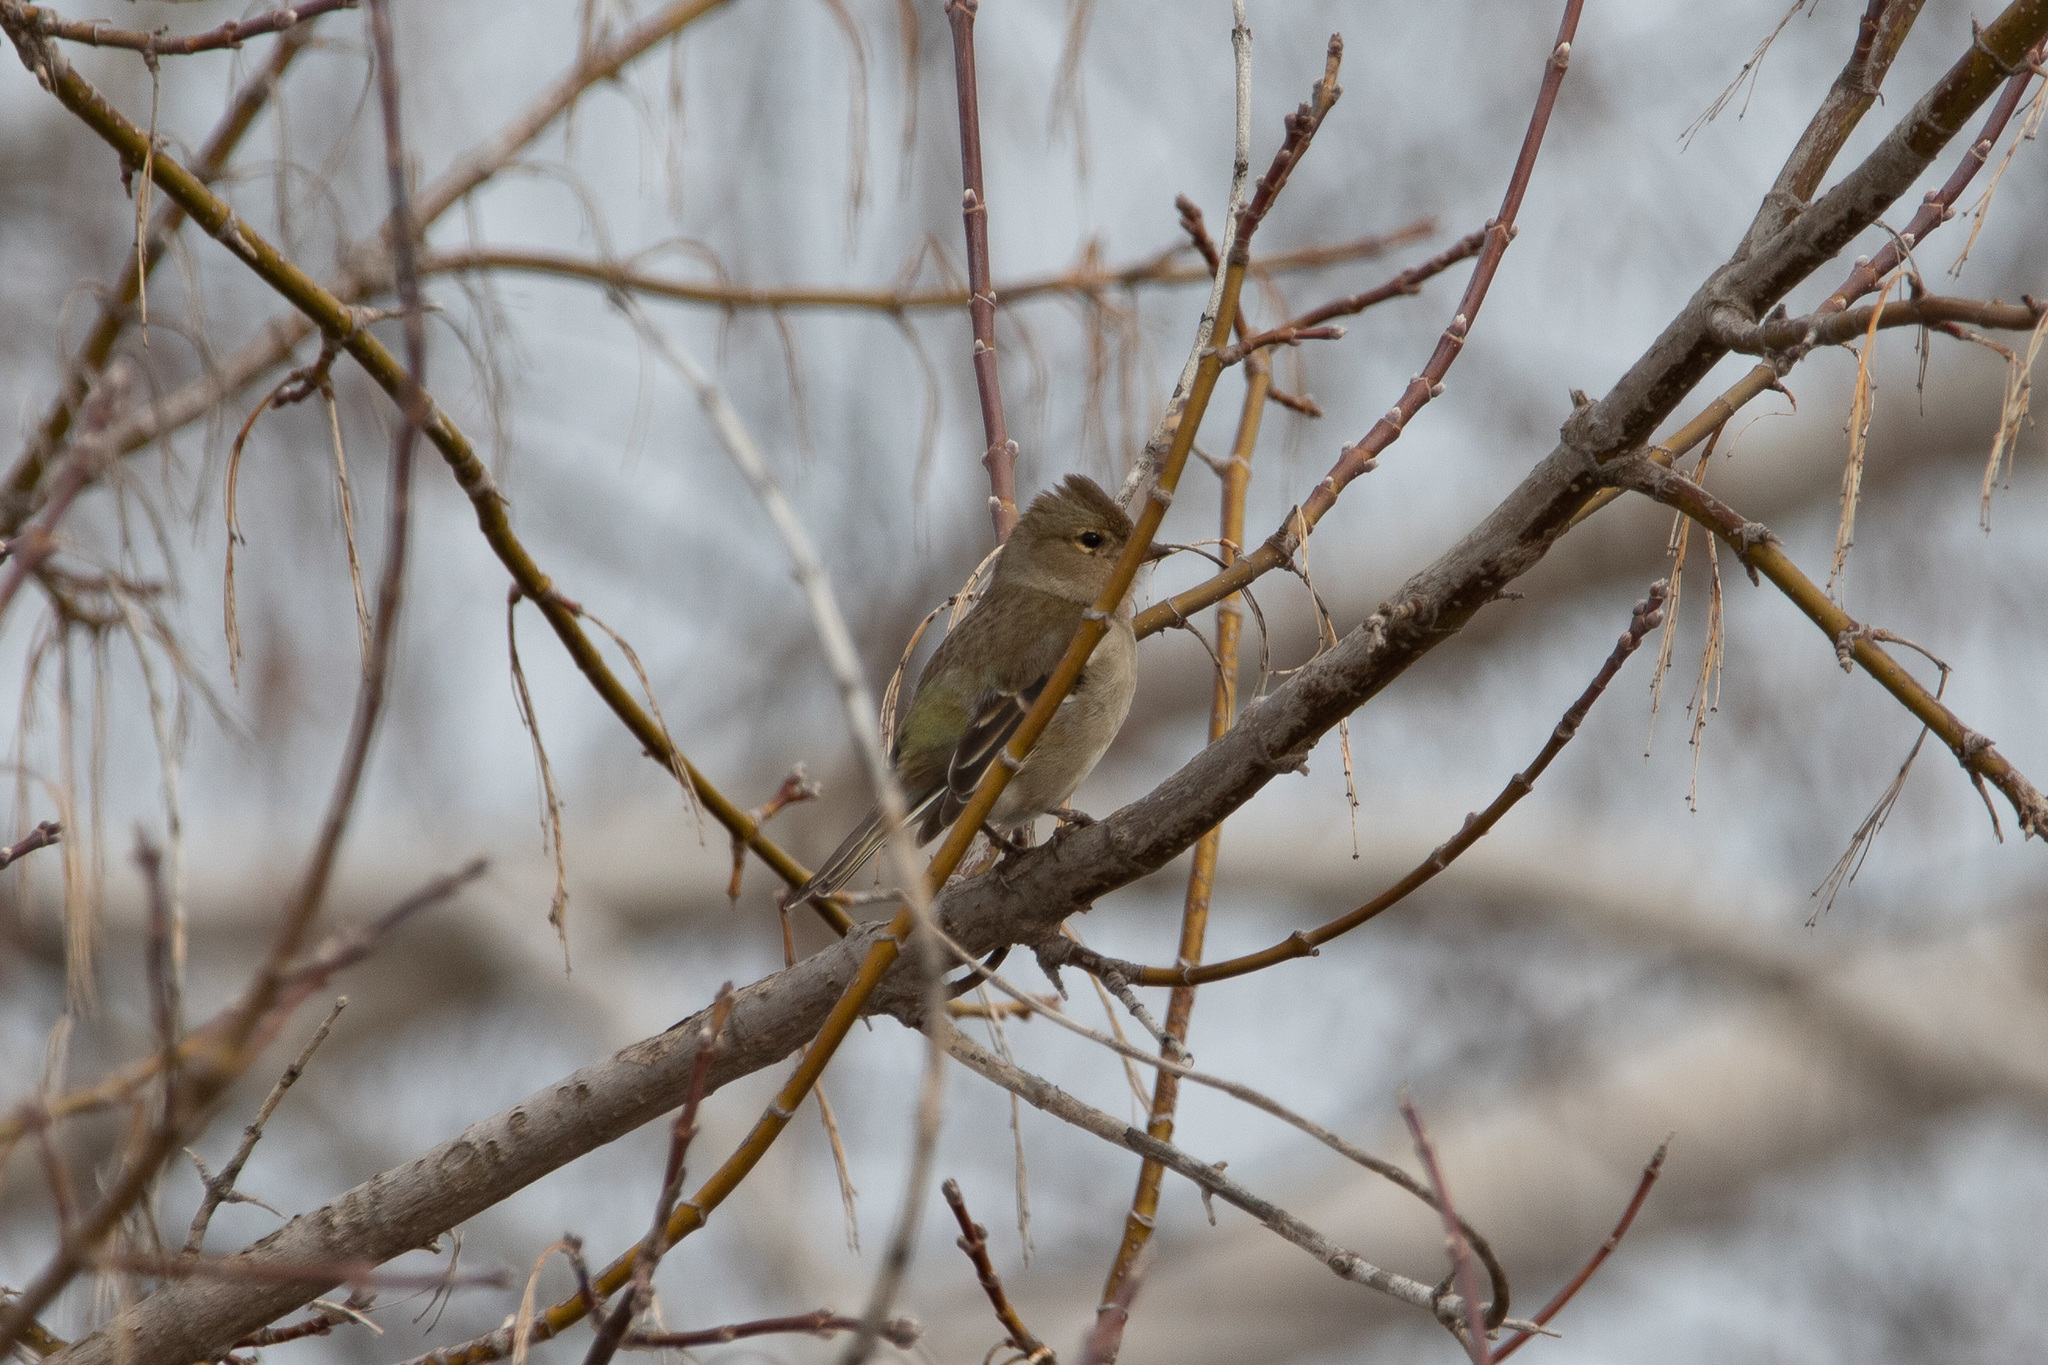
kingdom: Animalia
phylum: Chordata
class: Aves
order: Passeriformes
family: Fringillidae
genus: Fringilla
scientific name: Fringilla coelebs
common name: Common chaffinch
